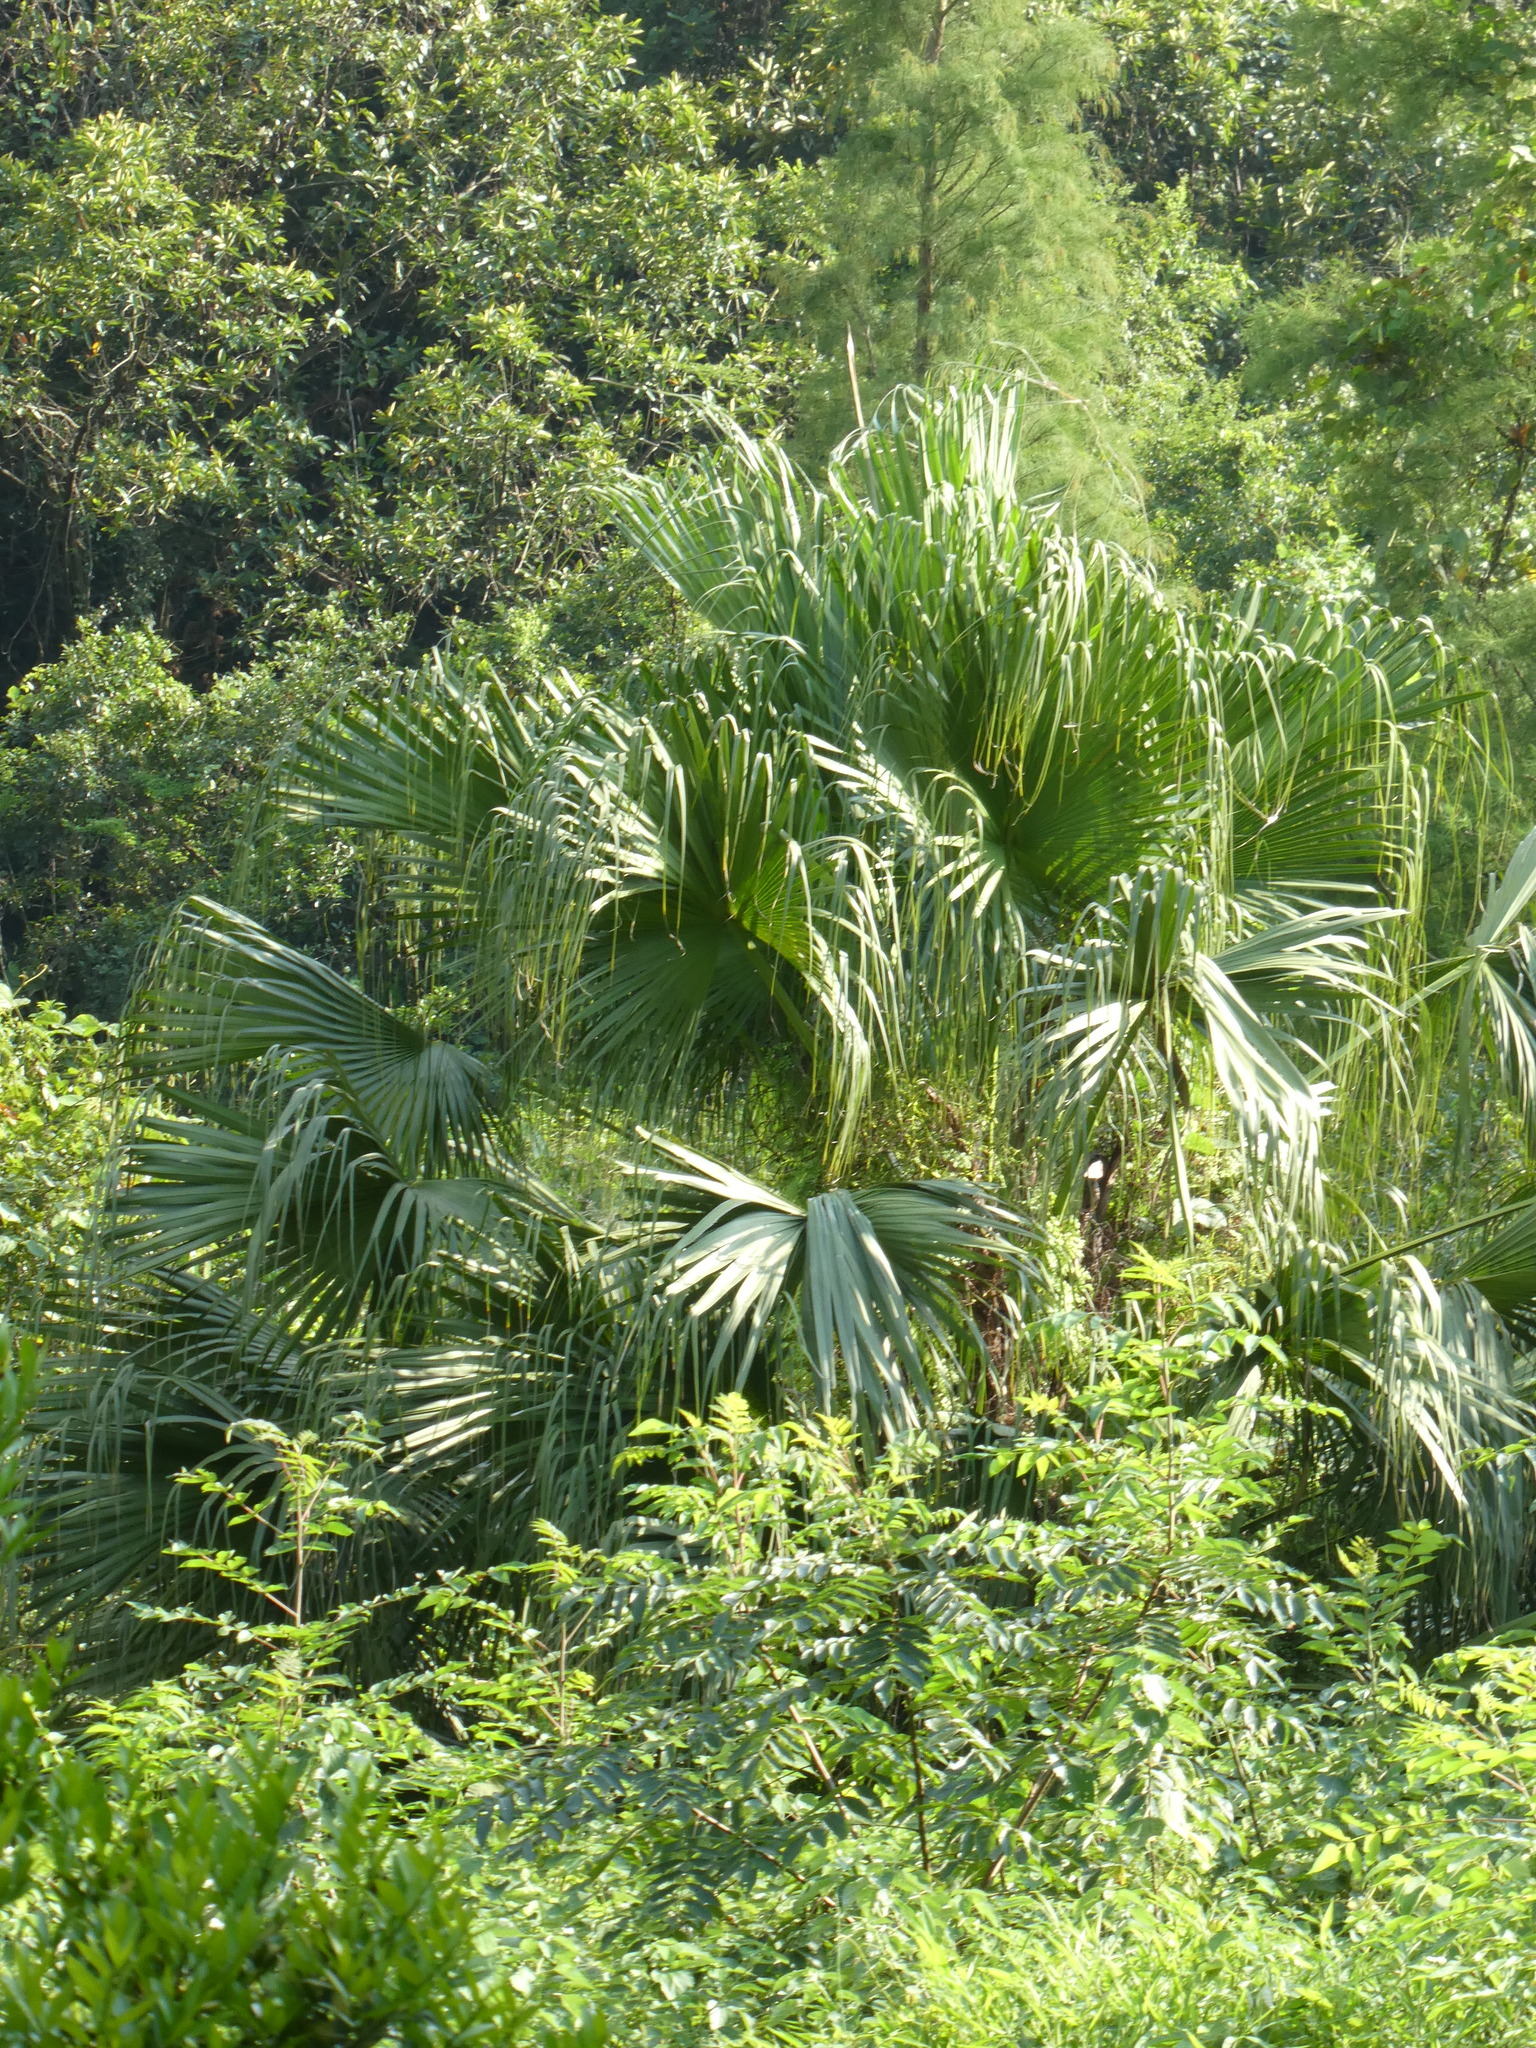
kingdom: Plantae
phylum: Tracheophyta
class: Liliopsida
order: Arecales
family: Arecaceae
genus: Livistona
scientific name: Livistona chinensis
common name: Fountain palm
